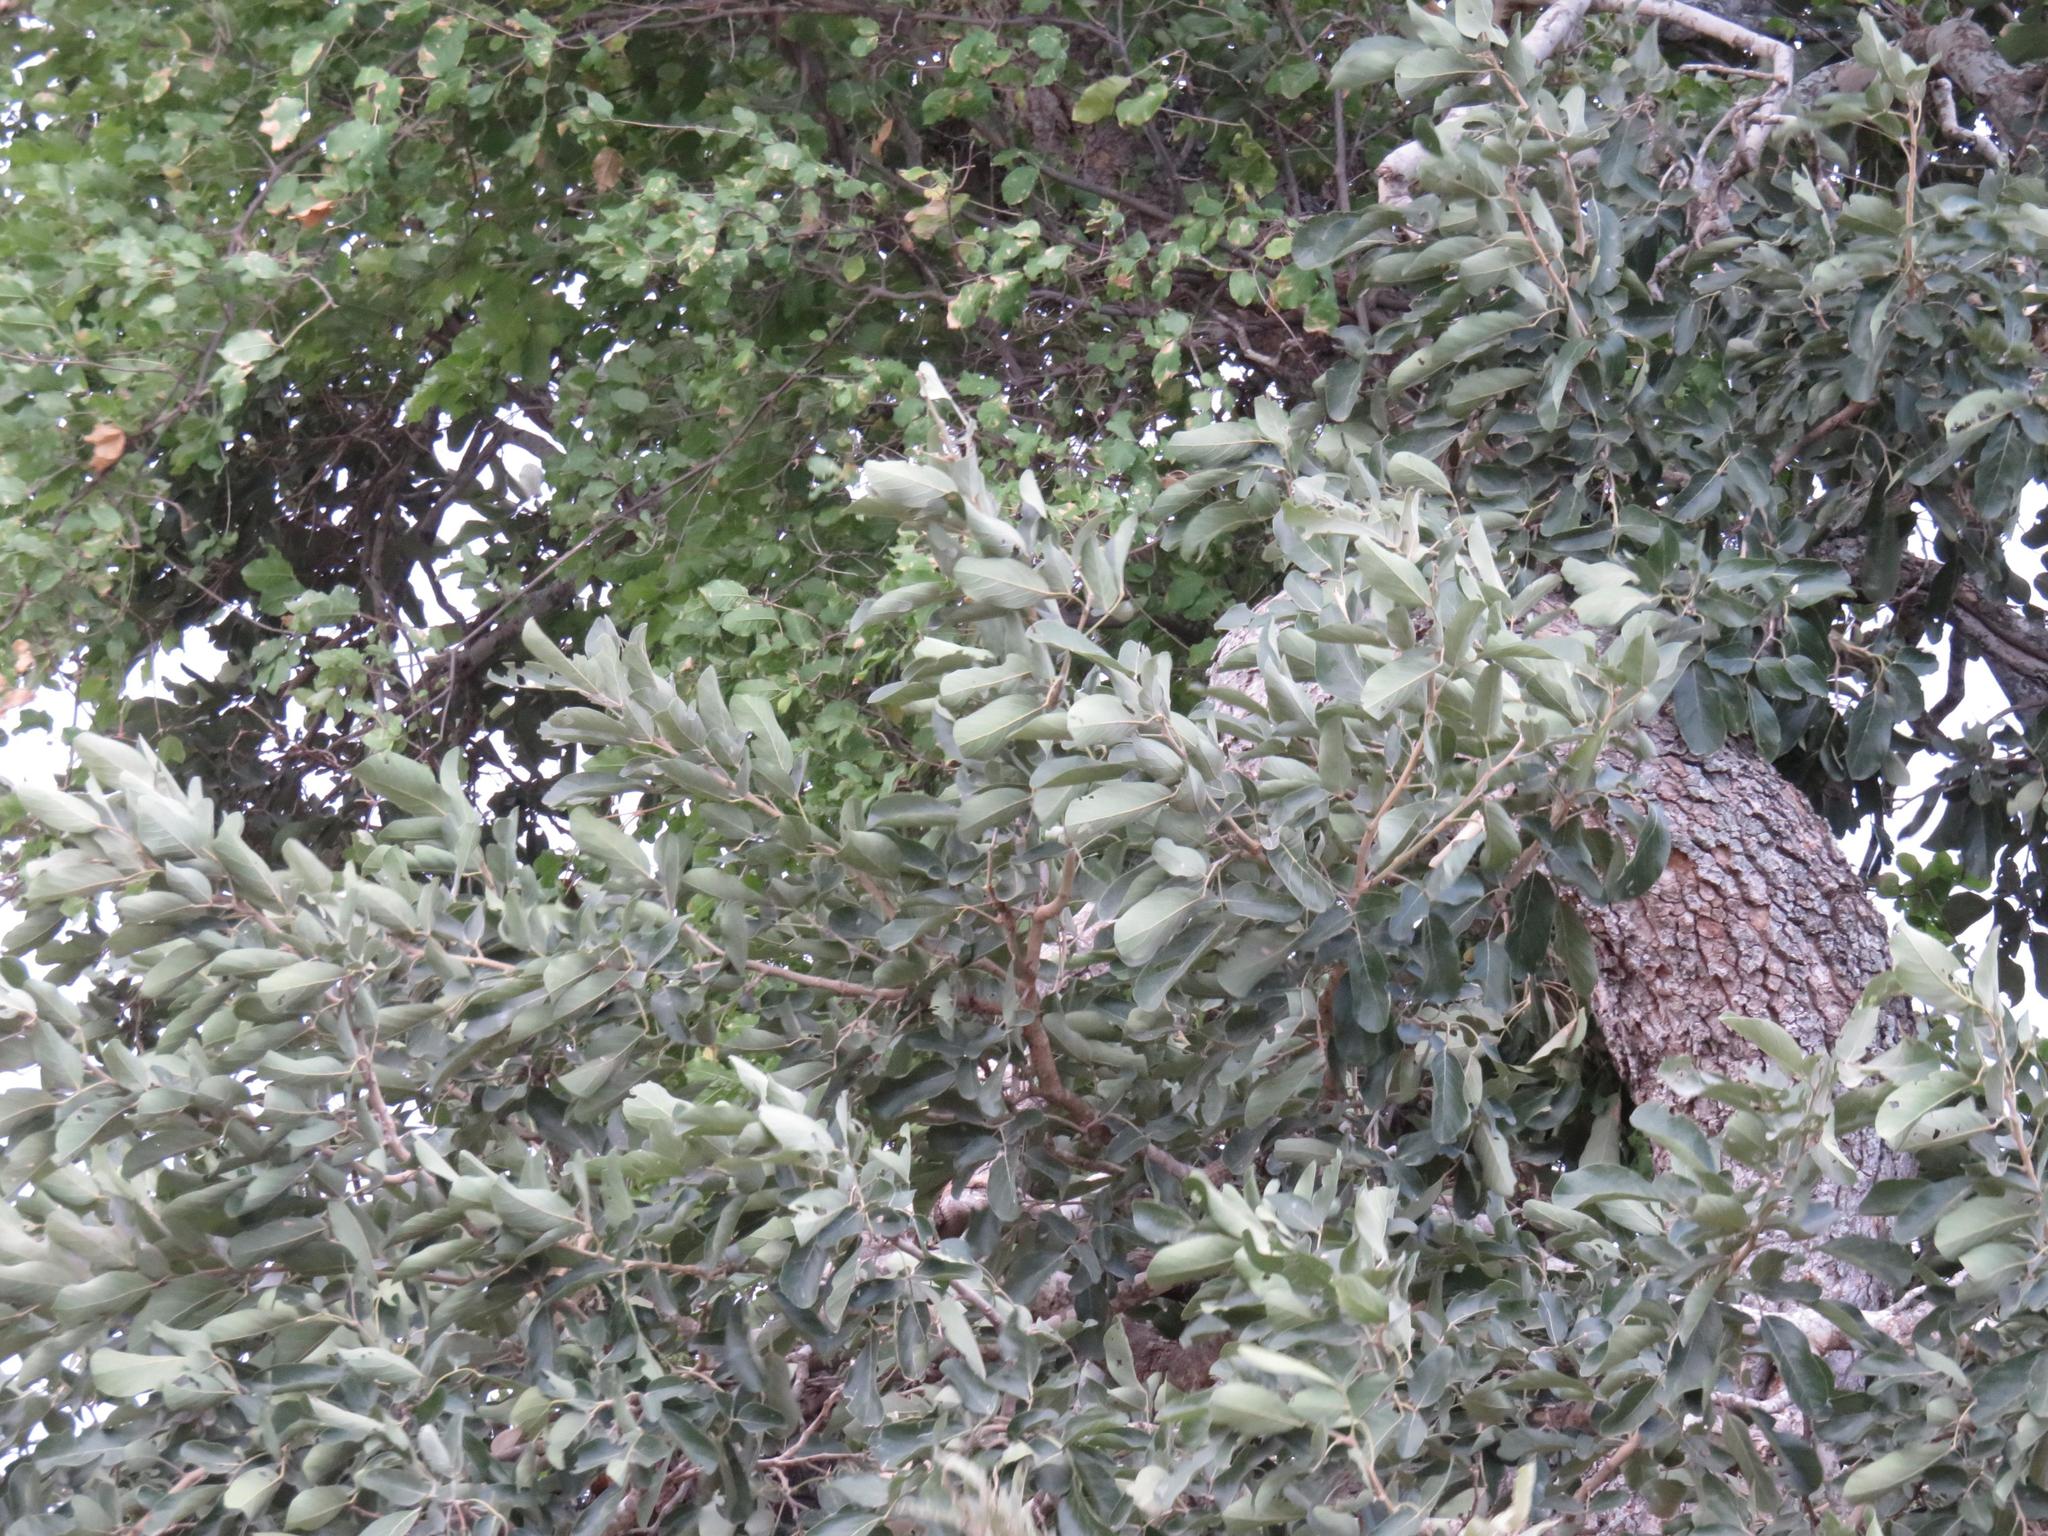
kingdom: Plantae
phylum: Tracheophyta
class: Magnoliopsida
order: Fabales
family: Fabaceae
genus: Pterocarpus
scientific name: Pterocarpus rotundifolius
